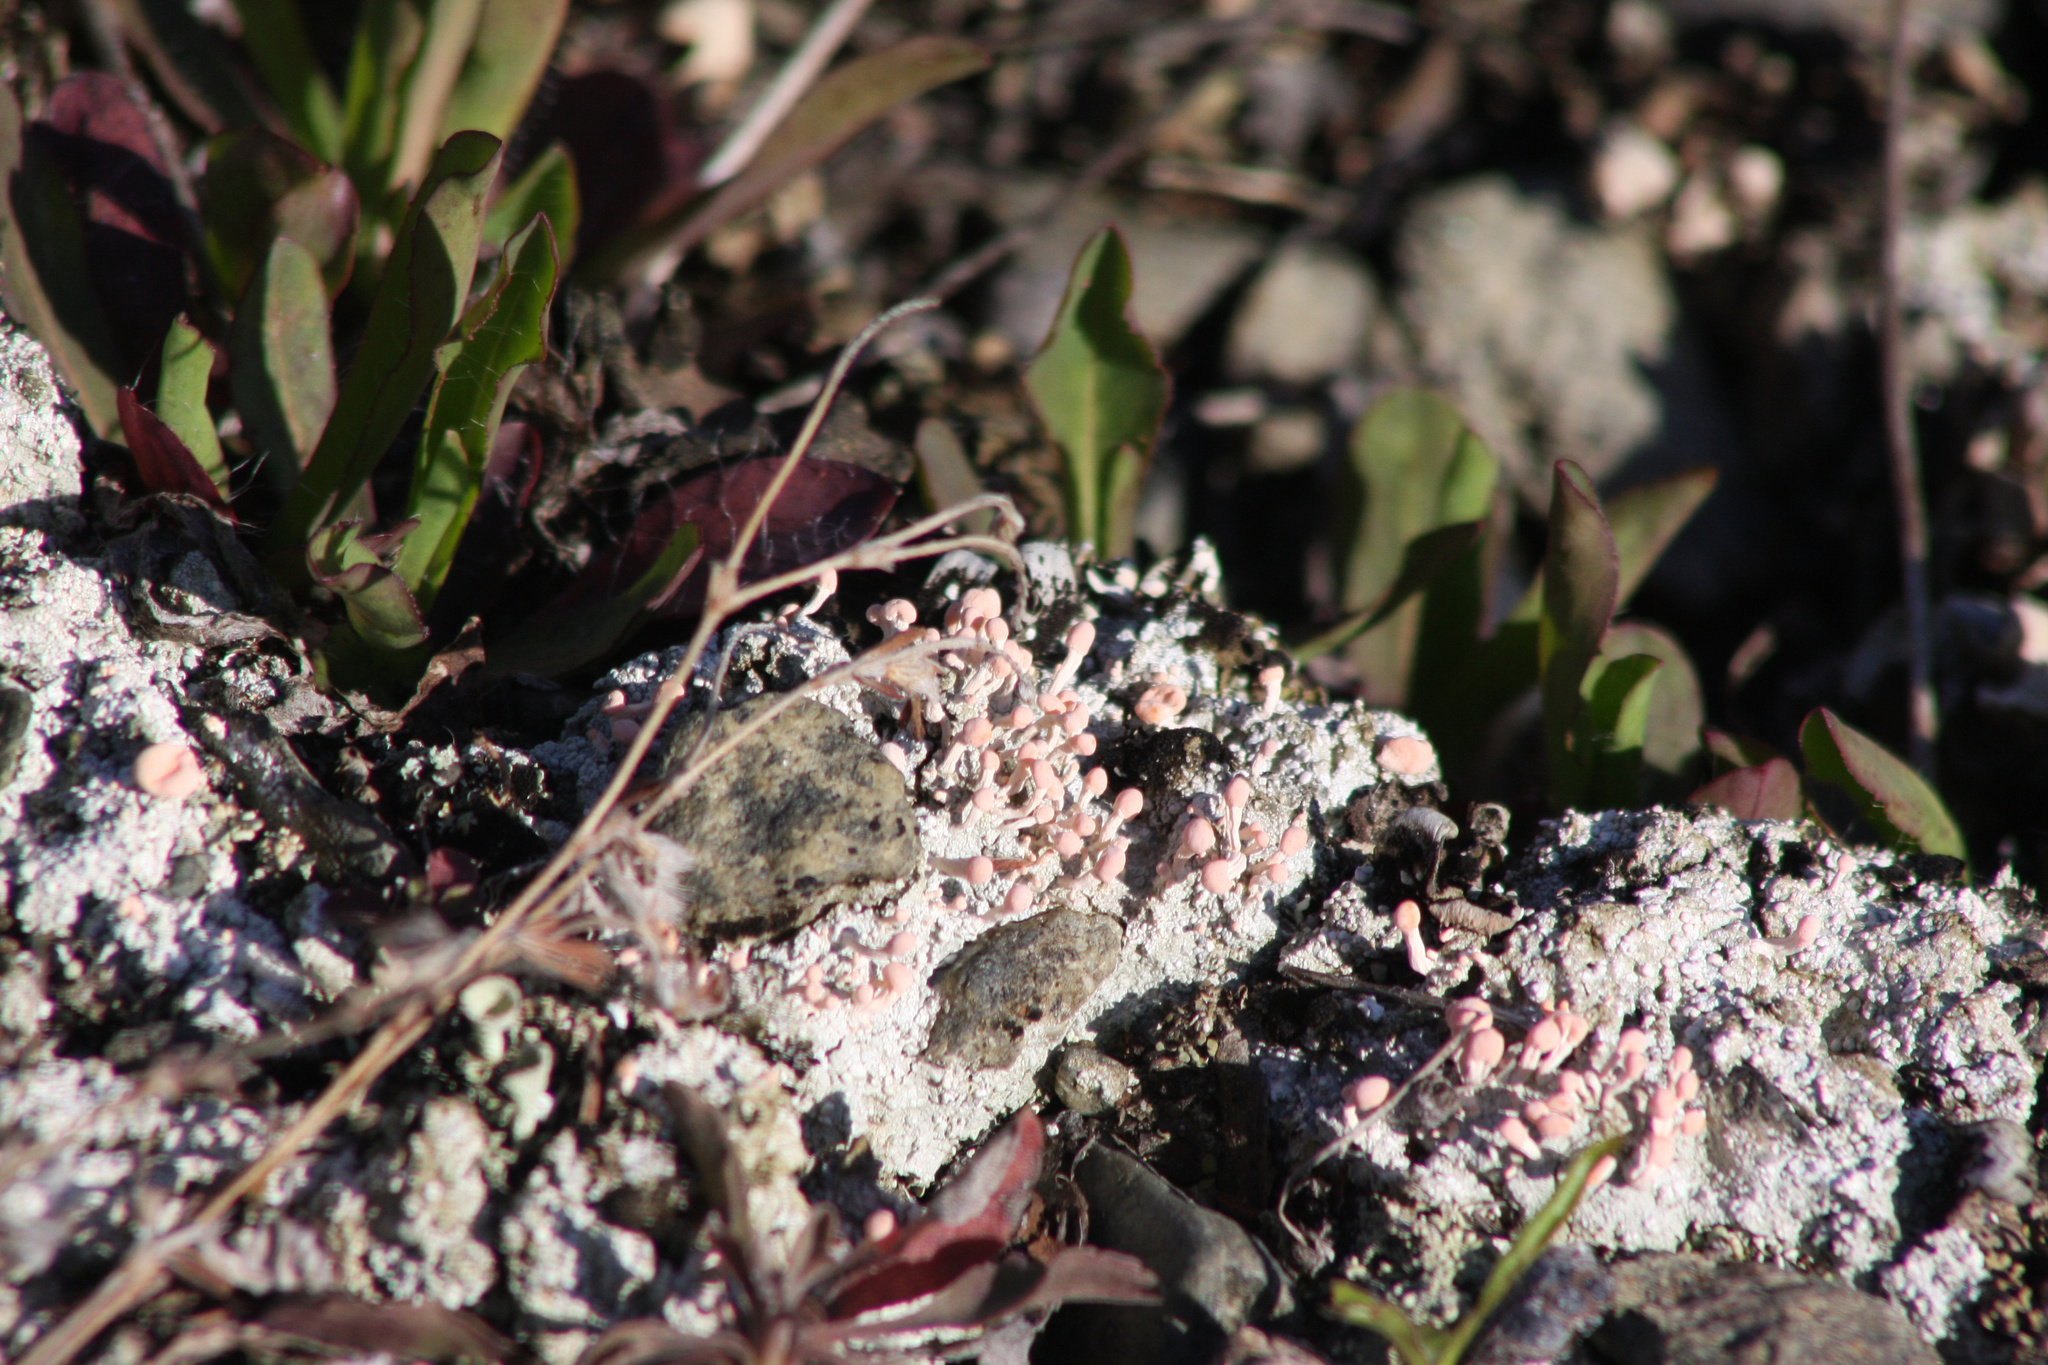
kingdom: Fungi
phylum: Ascomycota
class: Lecanoromycetes
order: Pertusariales
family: Icmadophilaceae
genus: Dibaeis
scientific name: Dibaeis baeomyces
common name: Pink earth lichen
